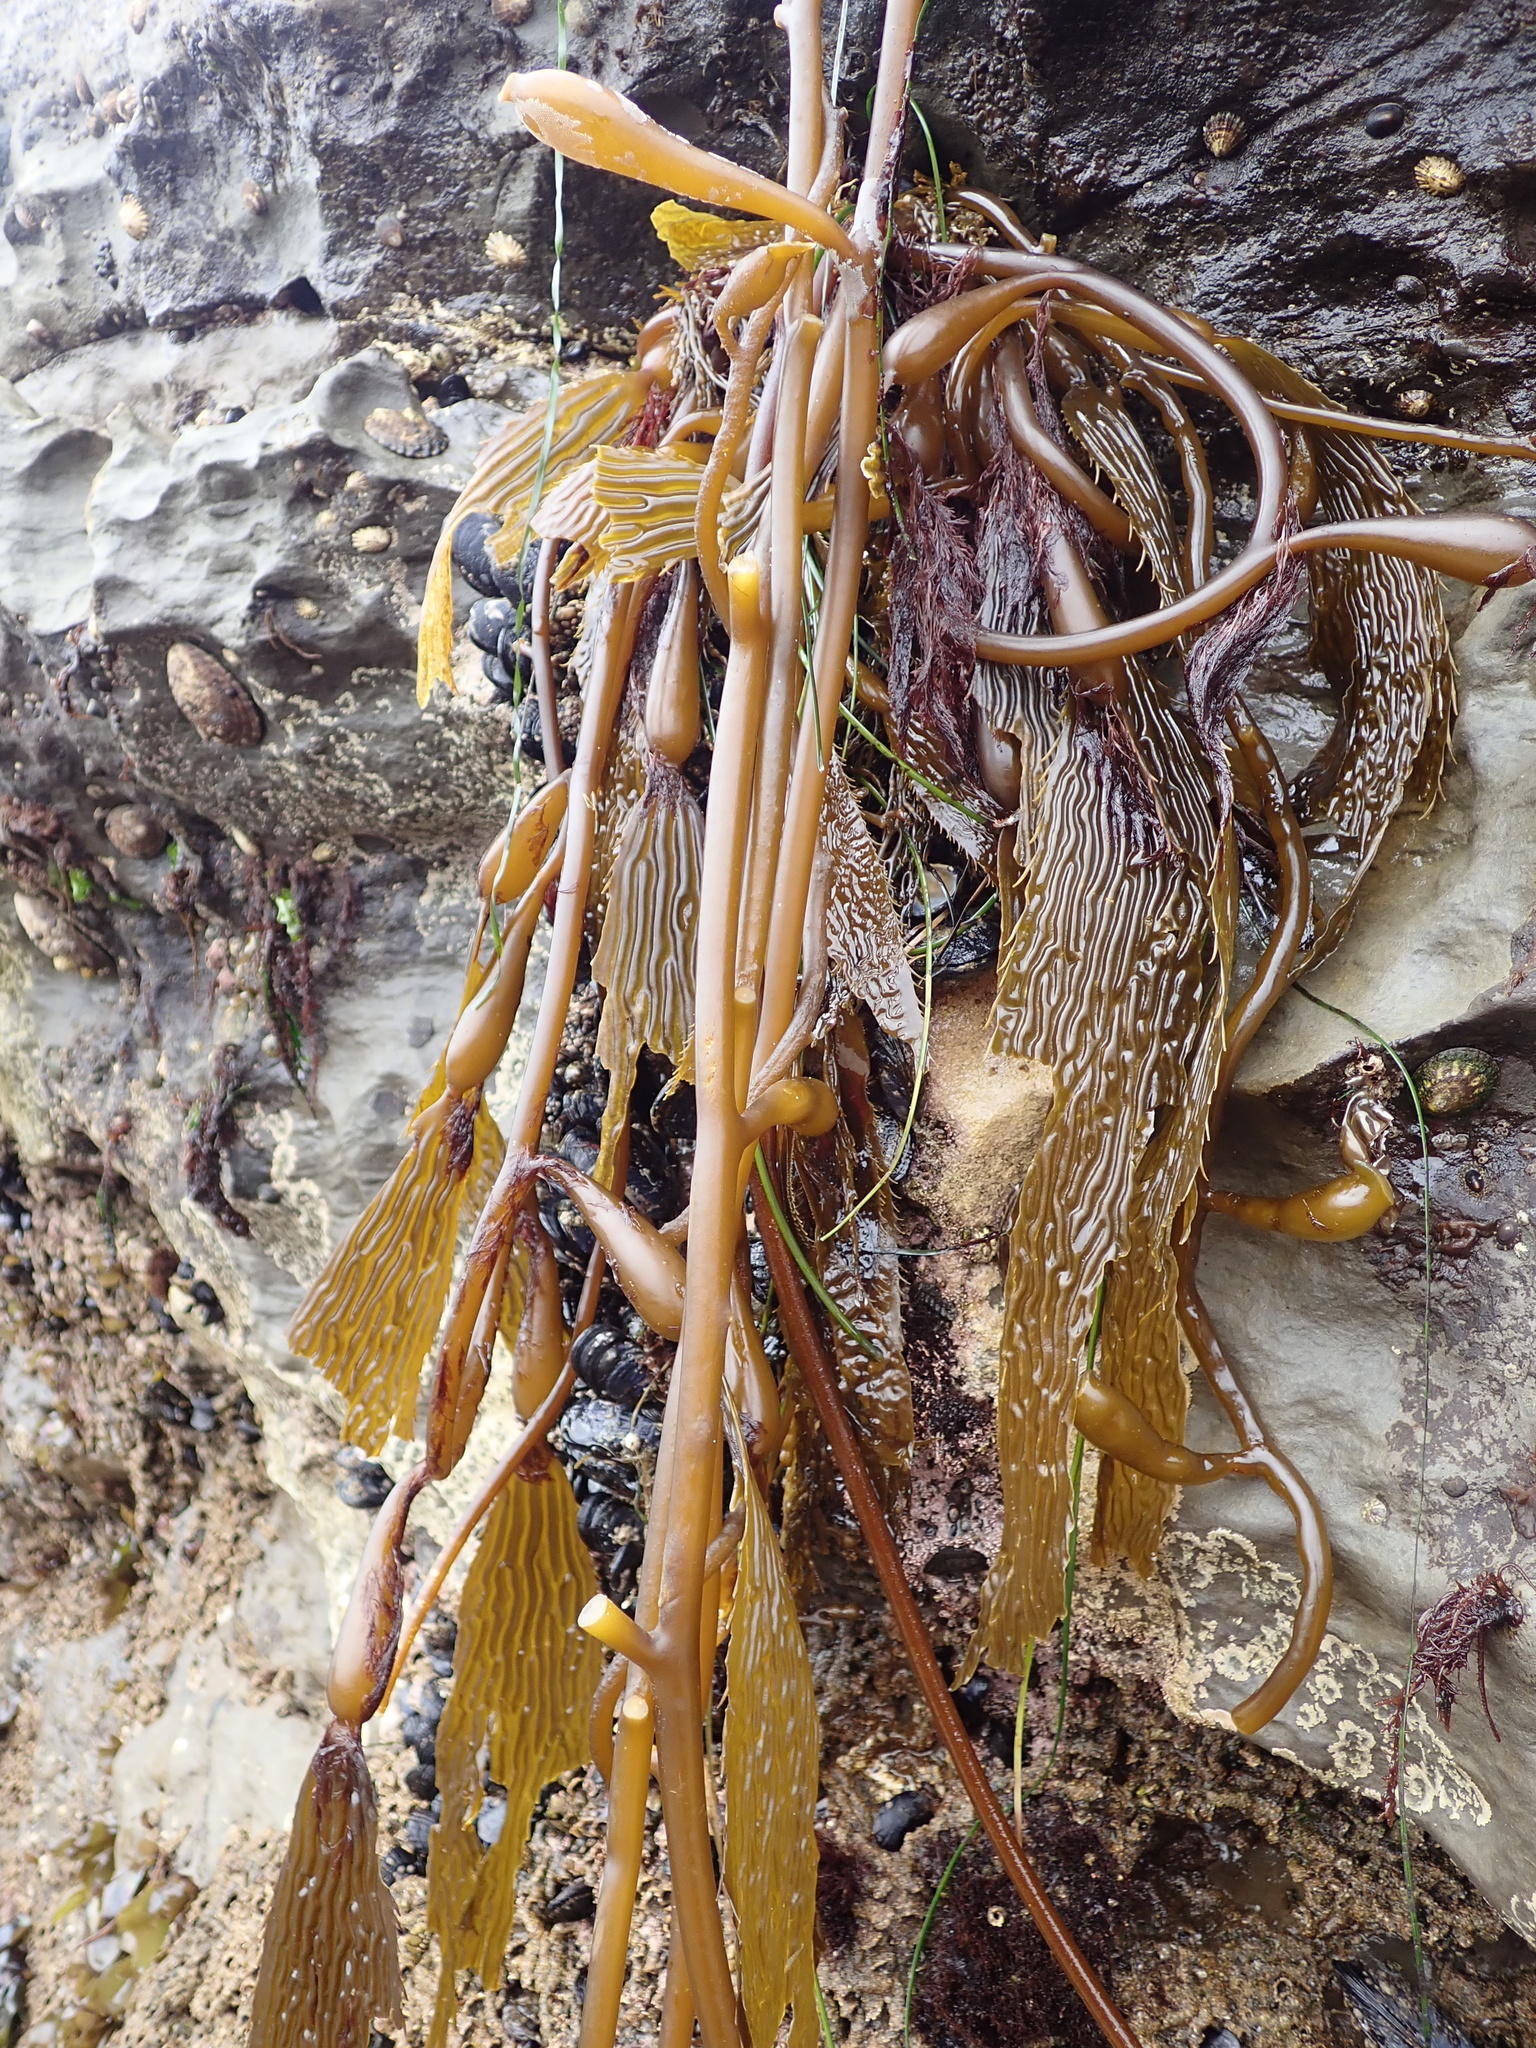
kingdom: Chromista
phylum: Ochrophyta
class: Phaeophyceae
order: Laminariales
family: Laminariaceae
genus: Macrocystis
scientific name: Macrocystis pyrifera
